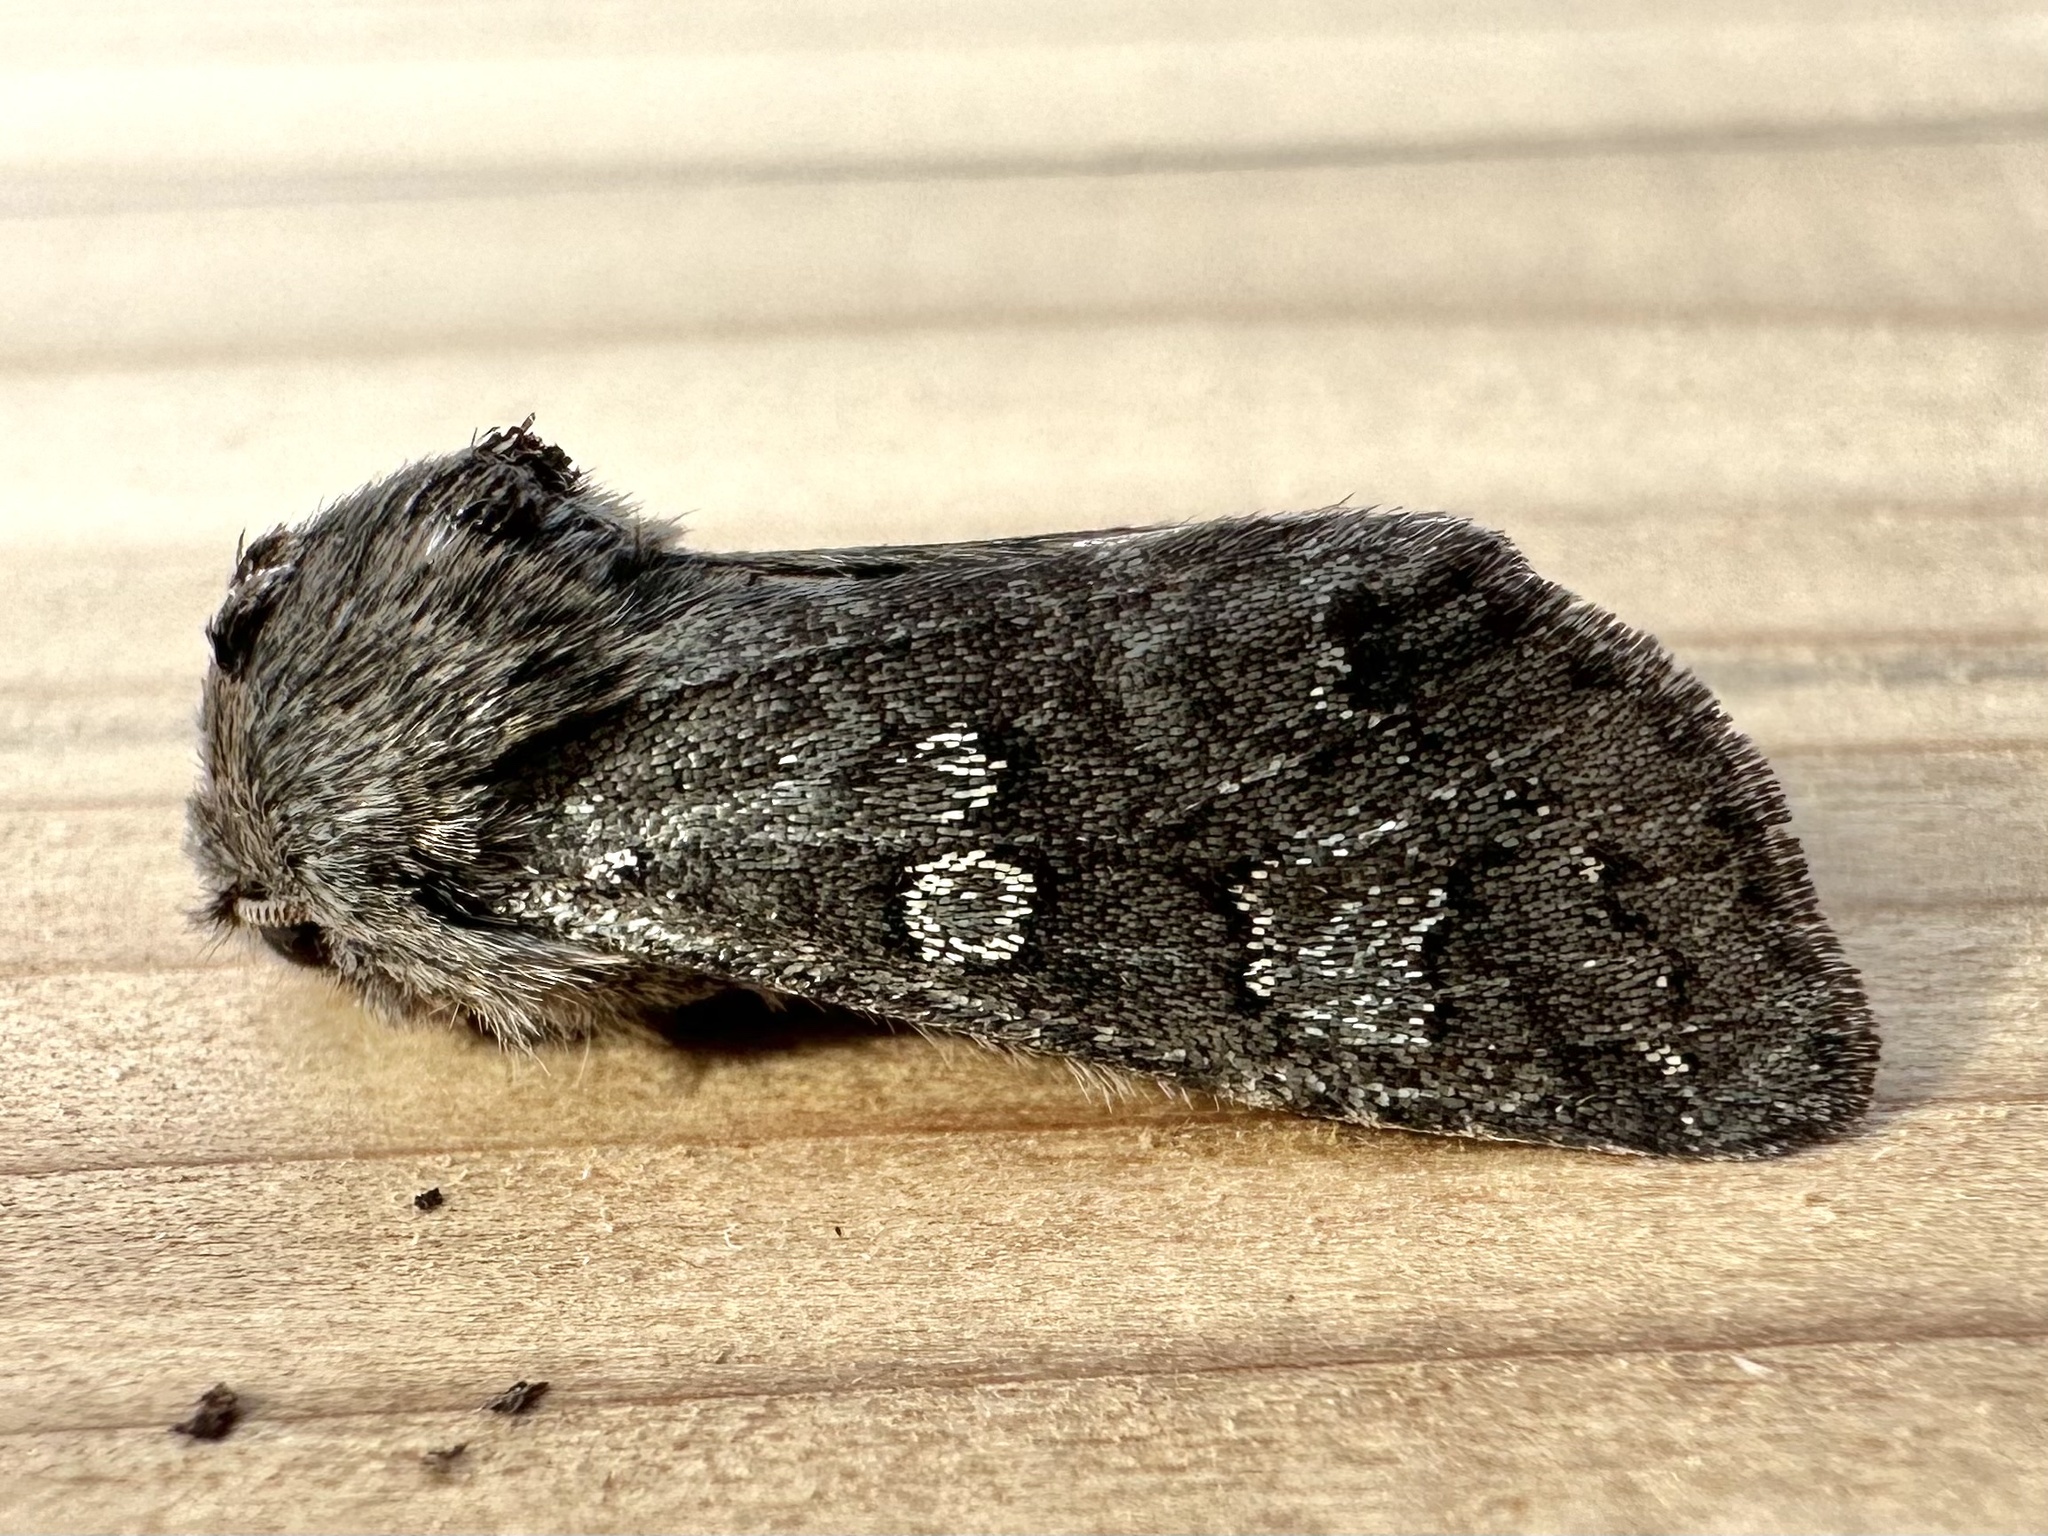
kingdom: Animalia
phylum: Arthropoda
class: Insecta
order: Lepidoptera
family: Noctuidae
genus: Psaphida
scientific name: Psaphida rolandi
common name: Roland's sallow
